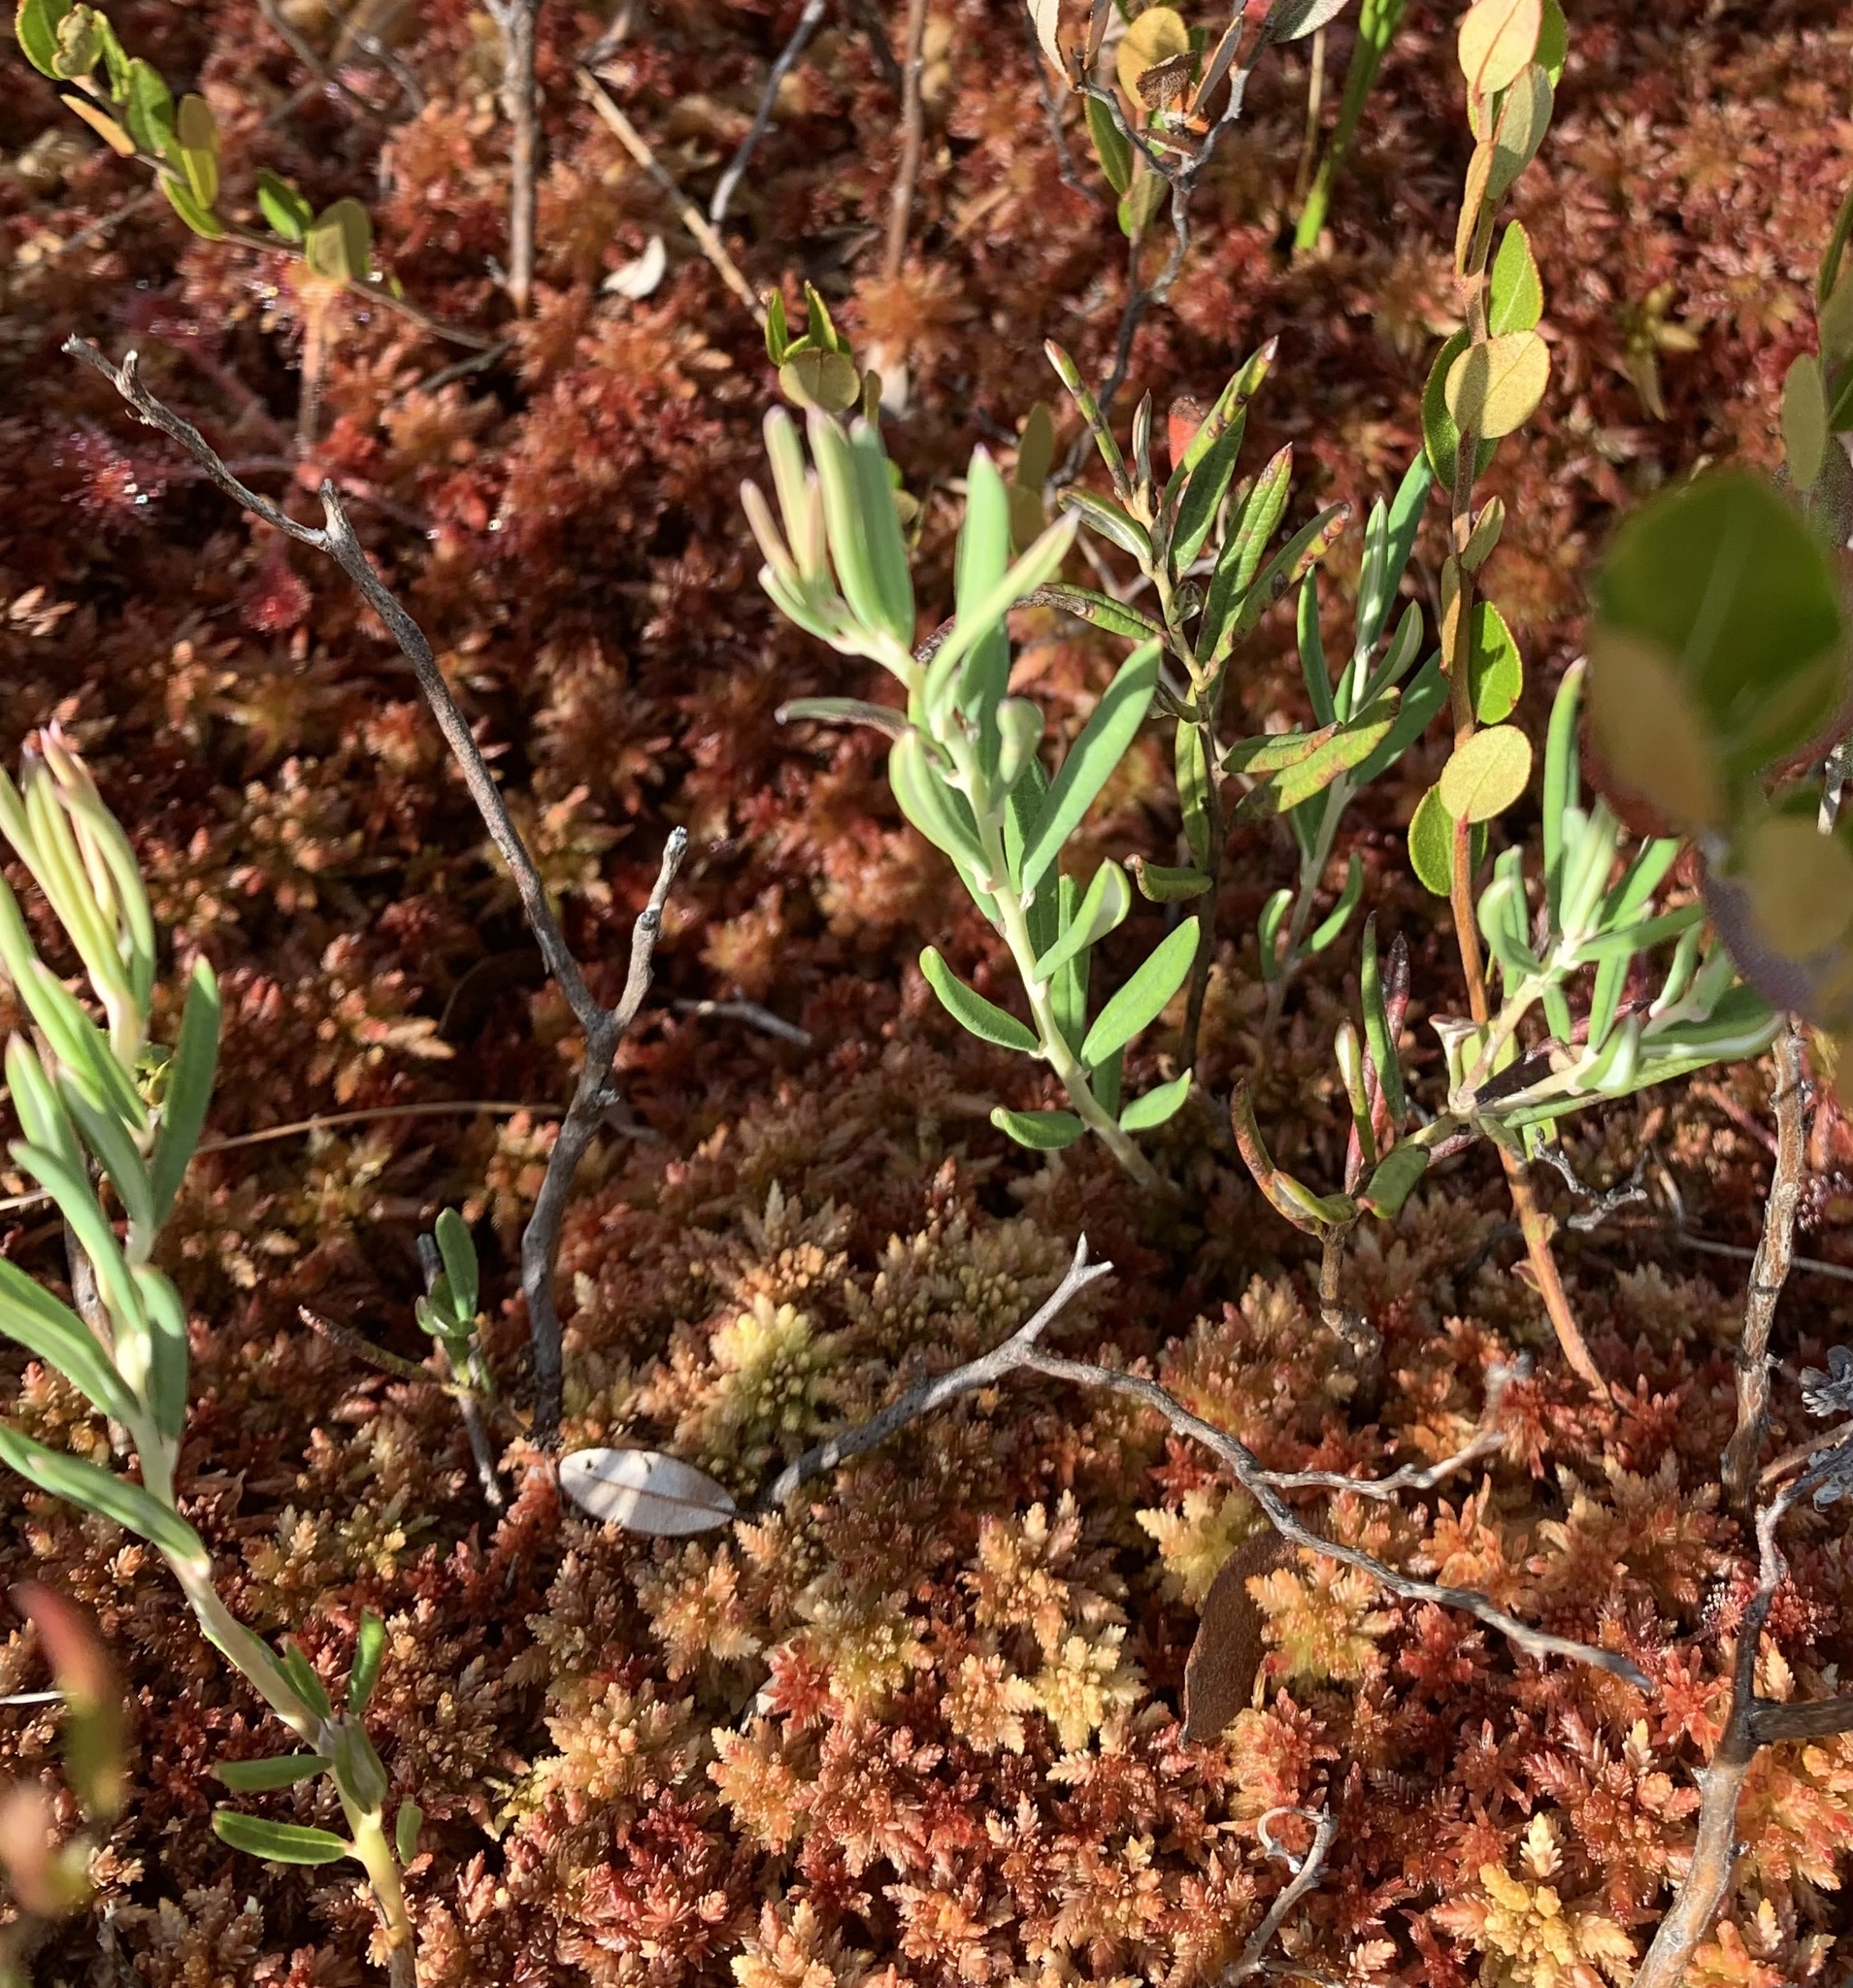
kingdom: Plantae
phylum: Tracheophyta
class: Magnoliopsida
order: Ericales
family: Ericaceae
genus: Andromeda
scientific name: Andromeda polifolia
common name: Bog-rosemary
